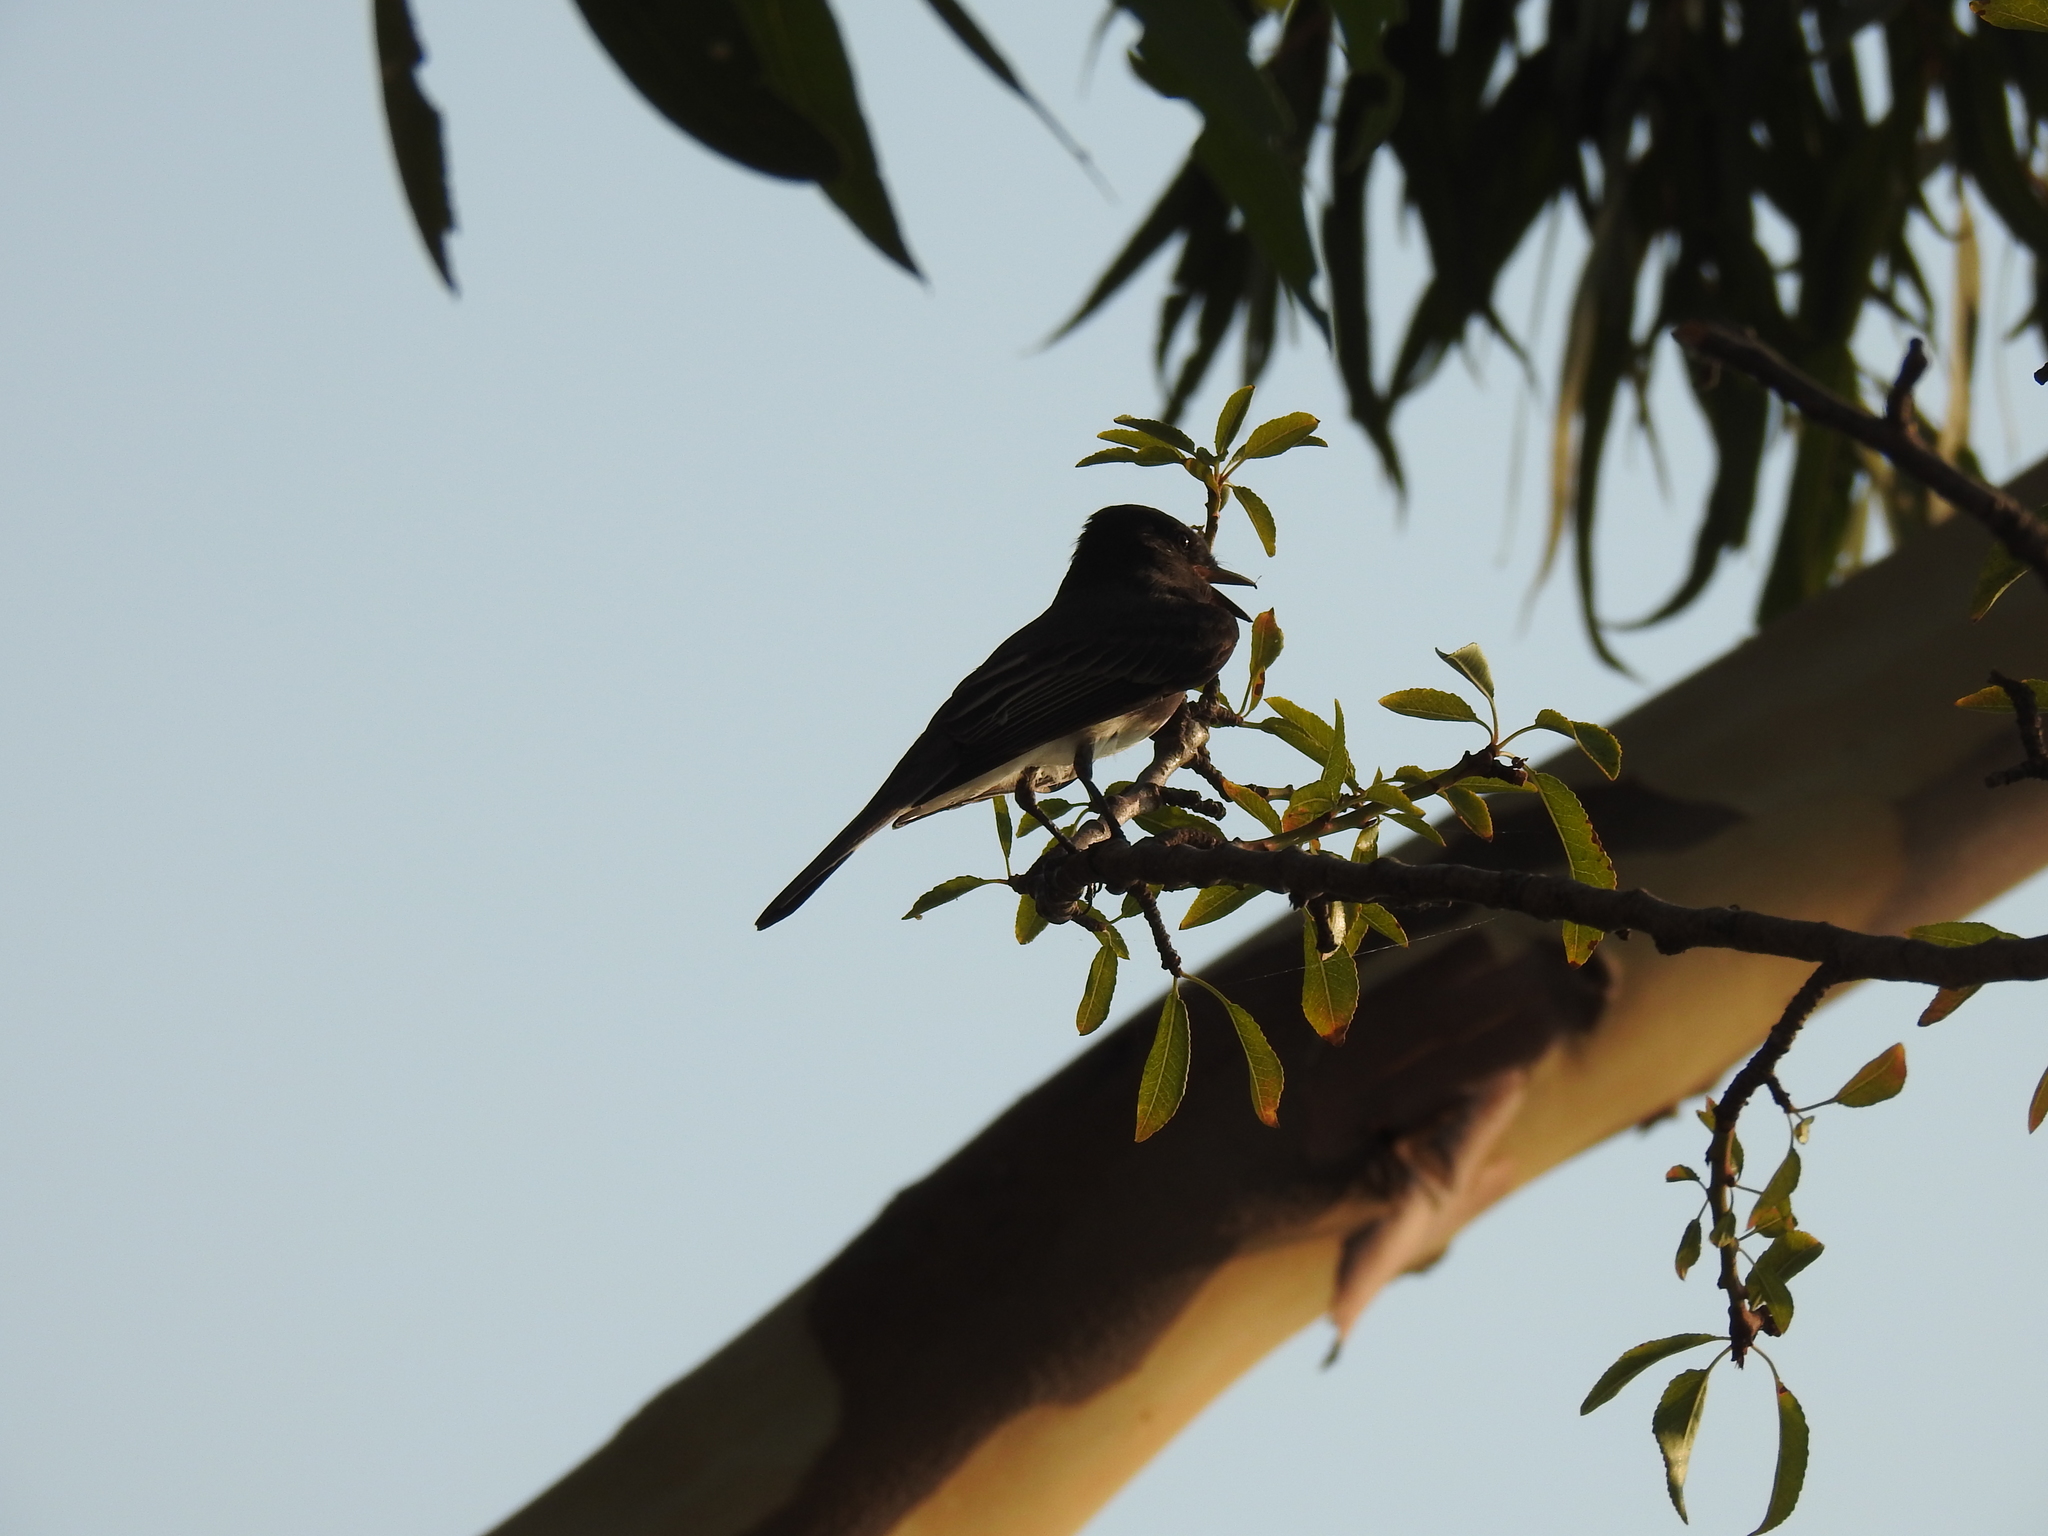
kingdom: Animalia
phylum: Chordata
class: Aves
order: Passeriformes
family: Tyrannidae
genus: Sayornis
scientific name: Sayornis nigricans
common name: Black phoebe
